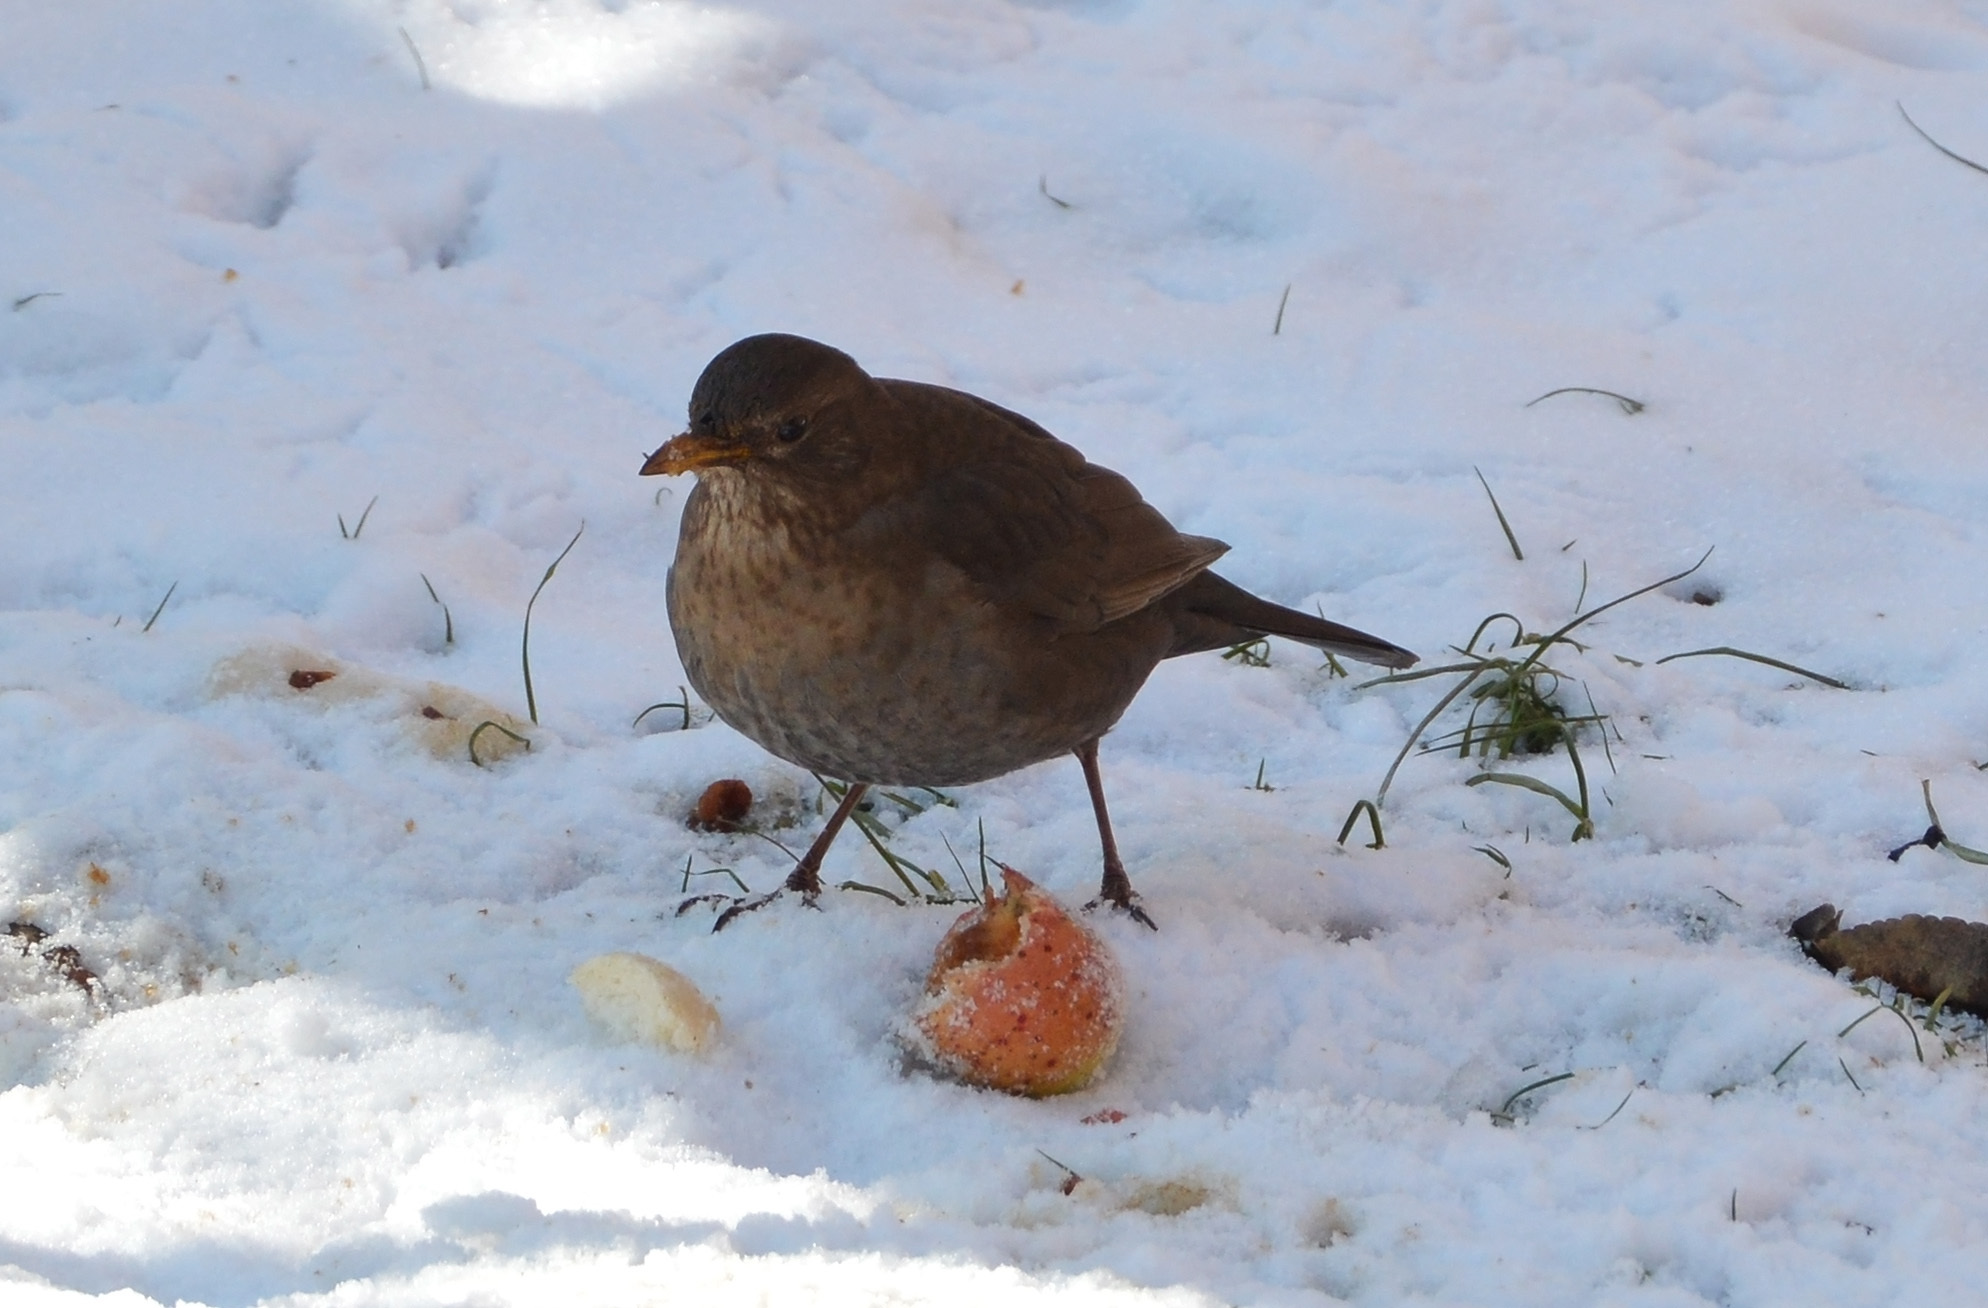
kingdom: Animalia
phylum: Chordata
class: Aves
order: Passeriformes
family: Turdidae
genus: Turdus
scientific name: Turdus merula
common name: Common blackbird
